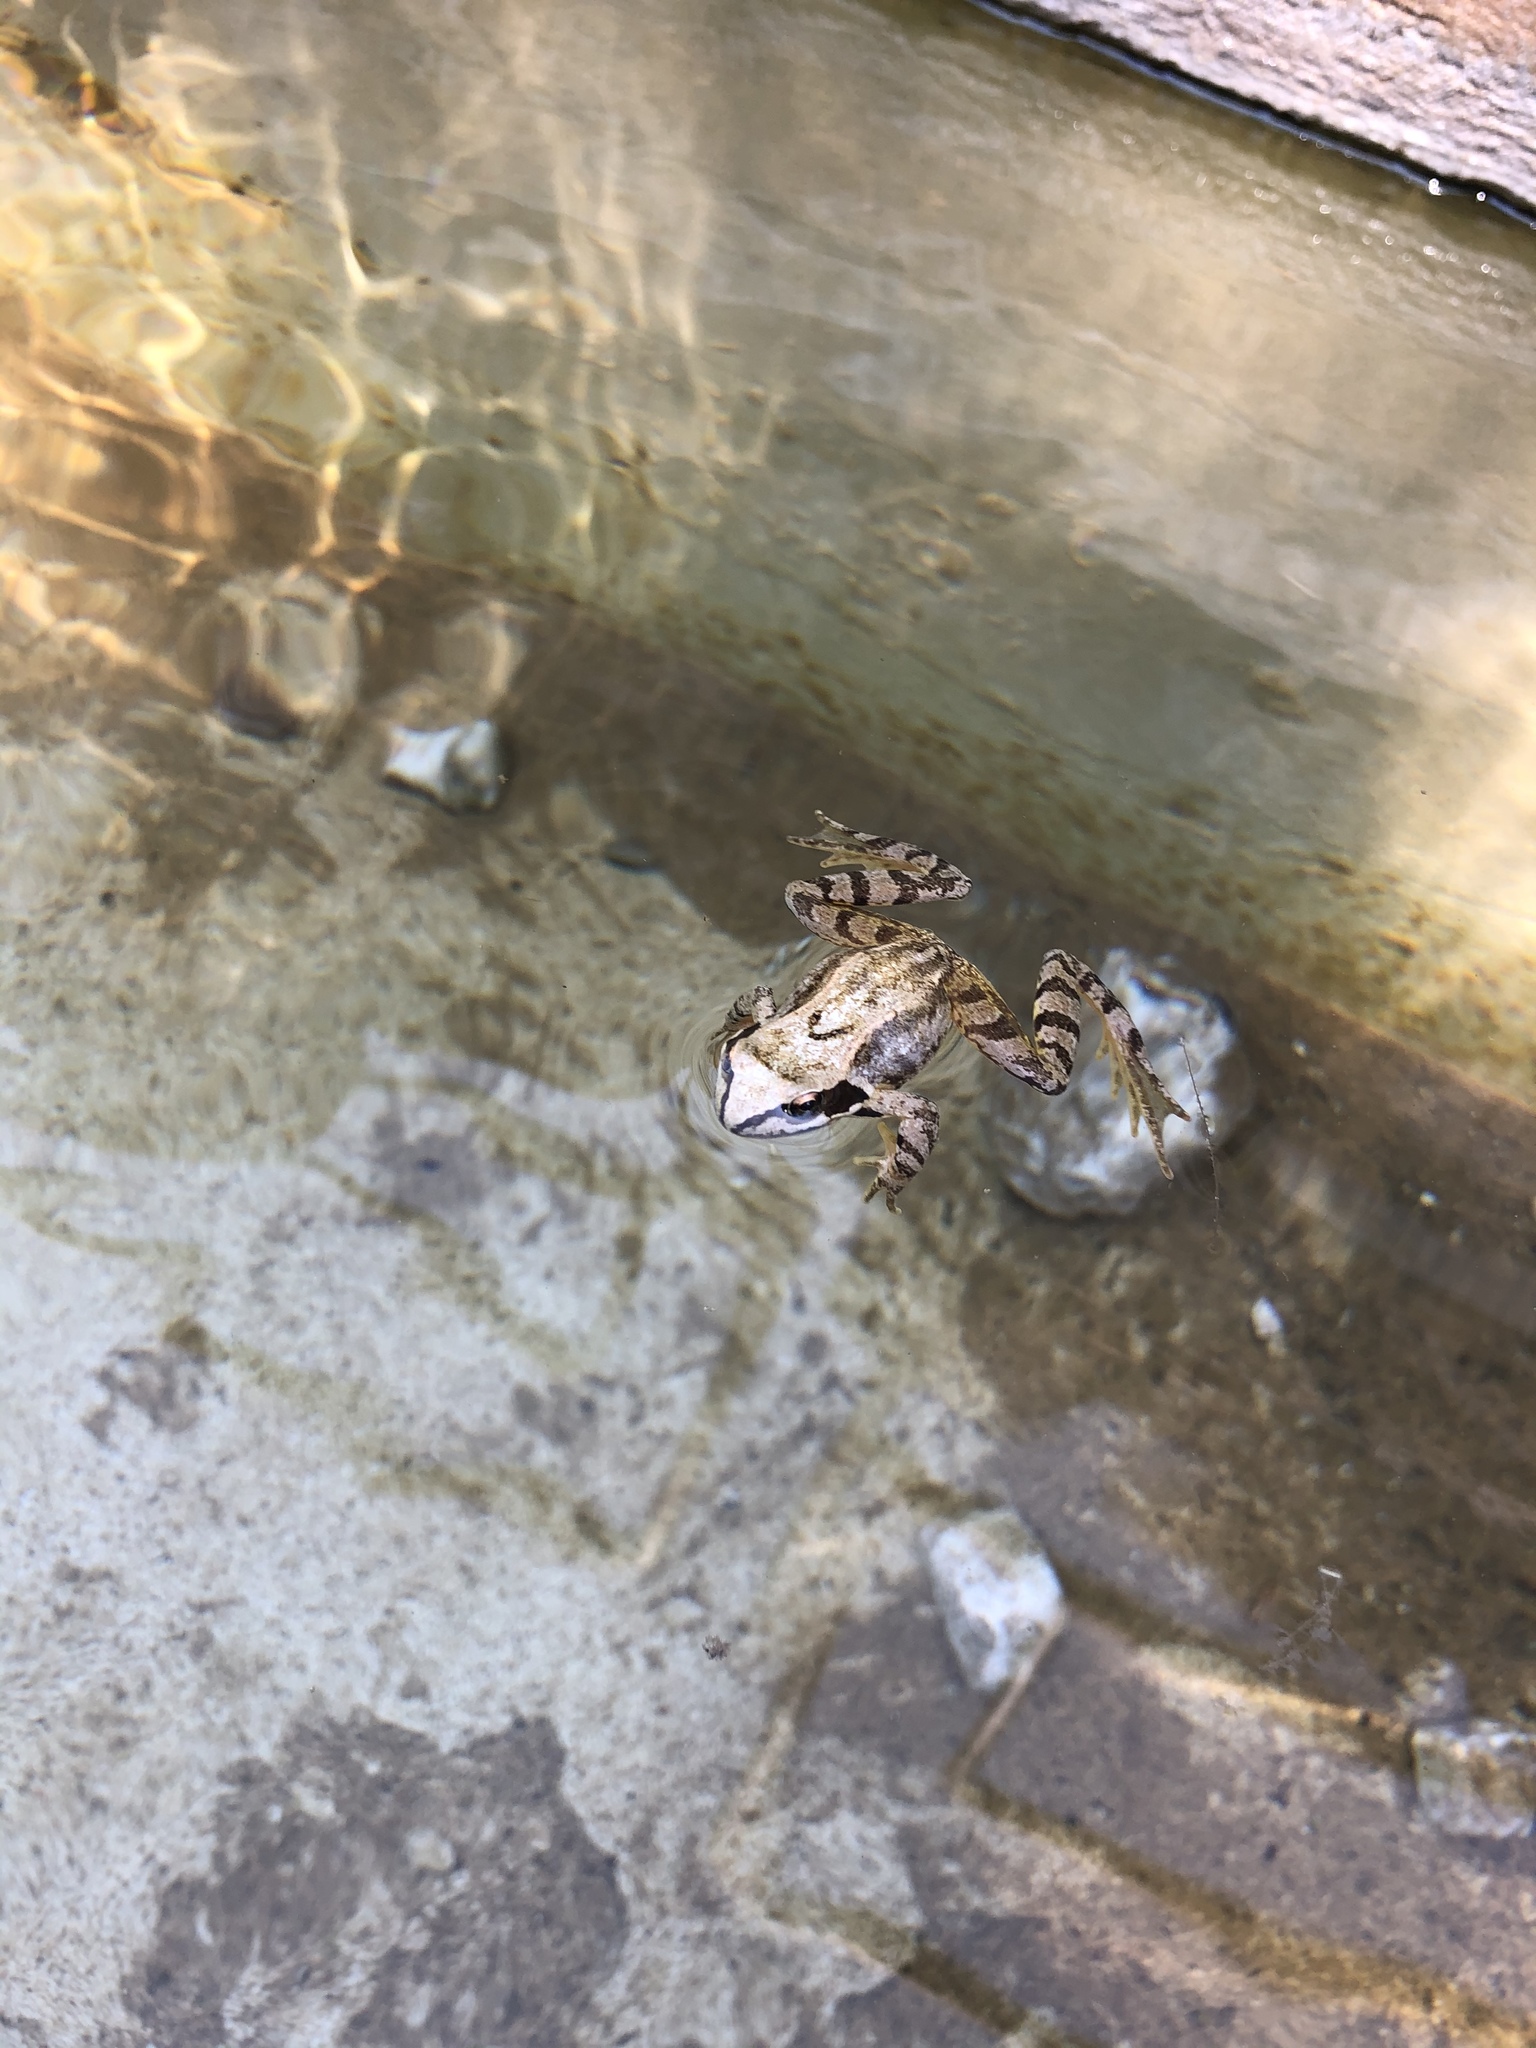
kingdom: Animalia
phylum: Chordata
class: Amphibia
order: Anura
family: Ranidae
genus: Rana
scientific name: Rana temporaria
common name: Common frog
